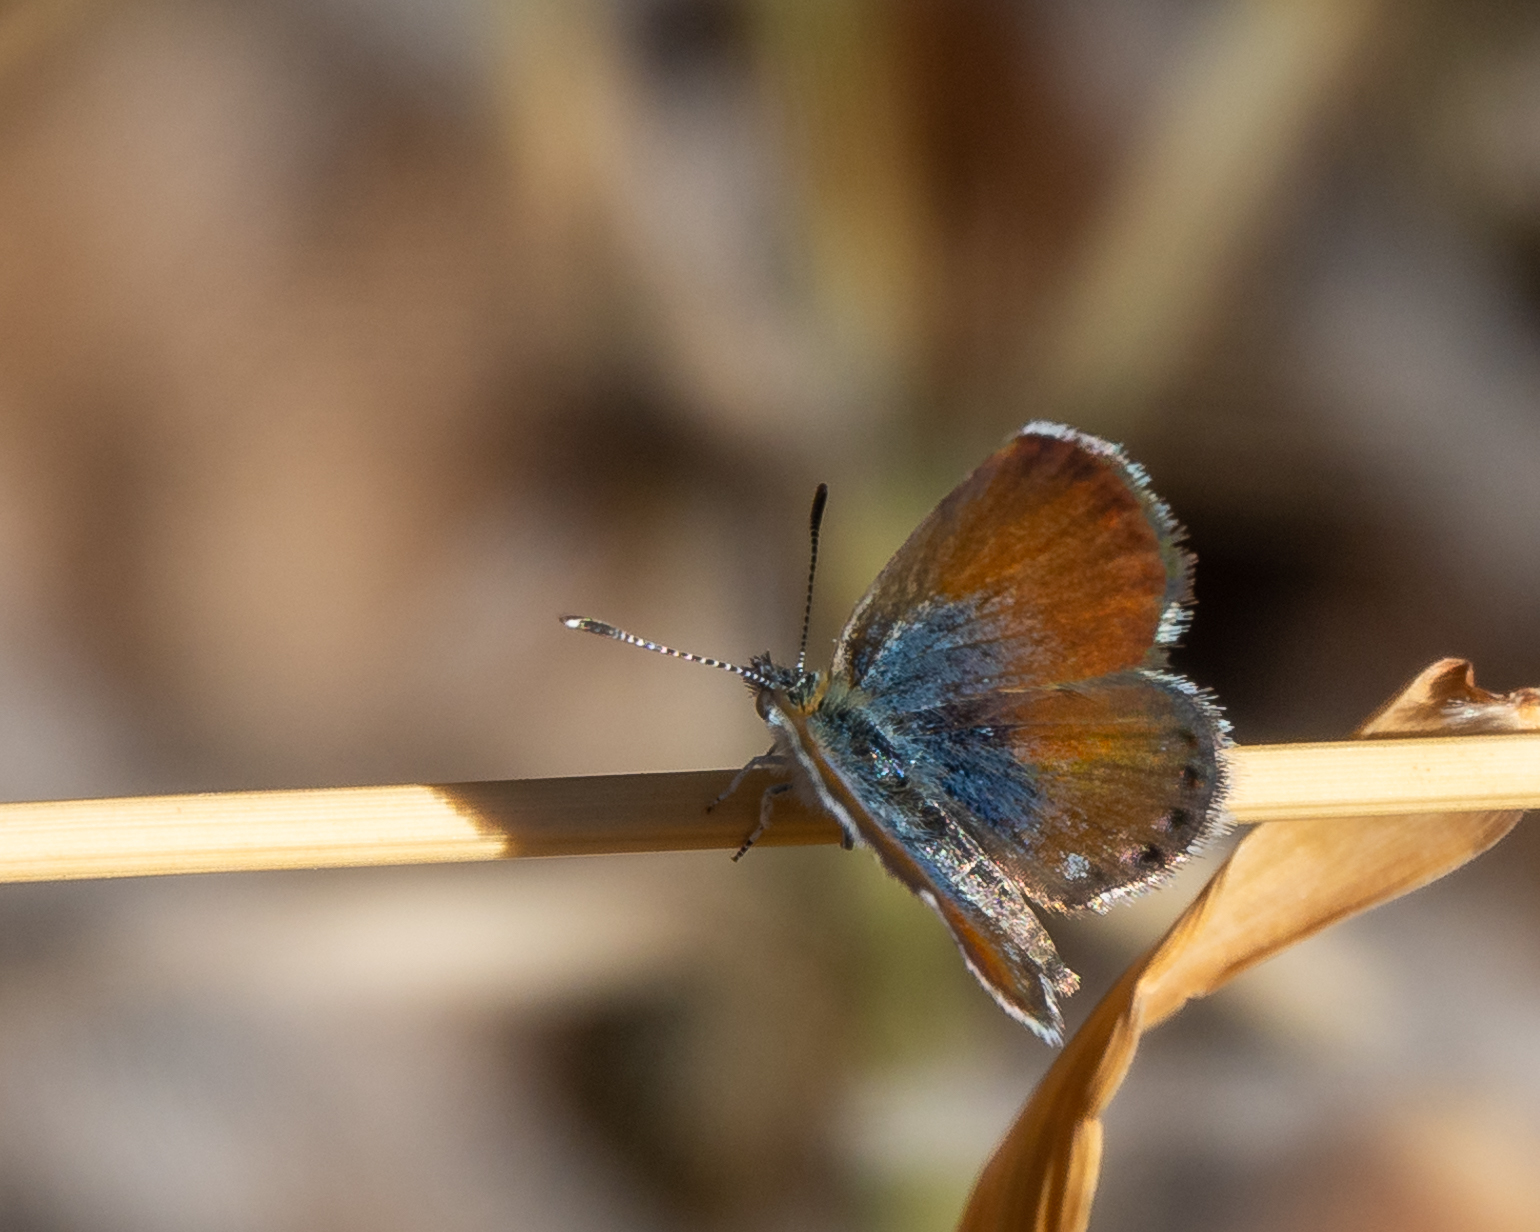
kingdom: Animalia
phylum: Arthropoda
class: Insecta
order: Lepidoptera
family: Lycaenidae
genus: Brephidium
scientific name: Brephidium exilis
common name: Pygmy blue
